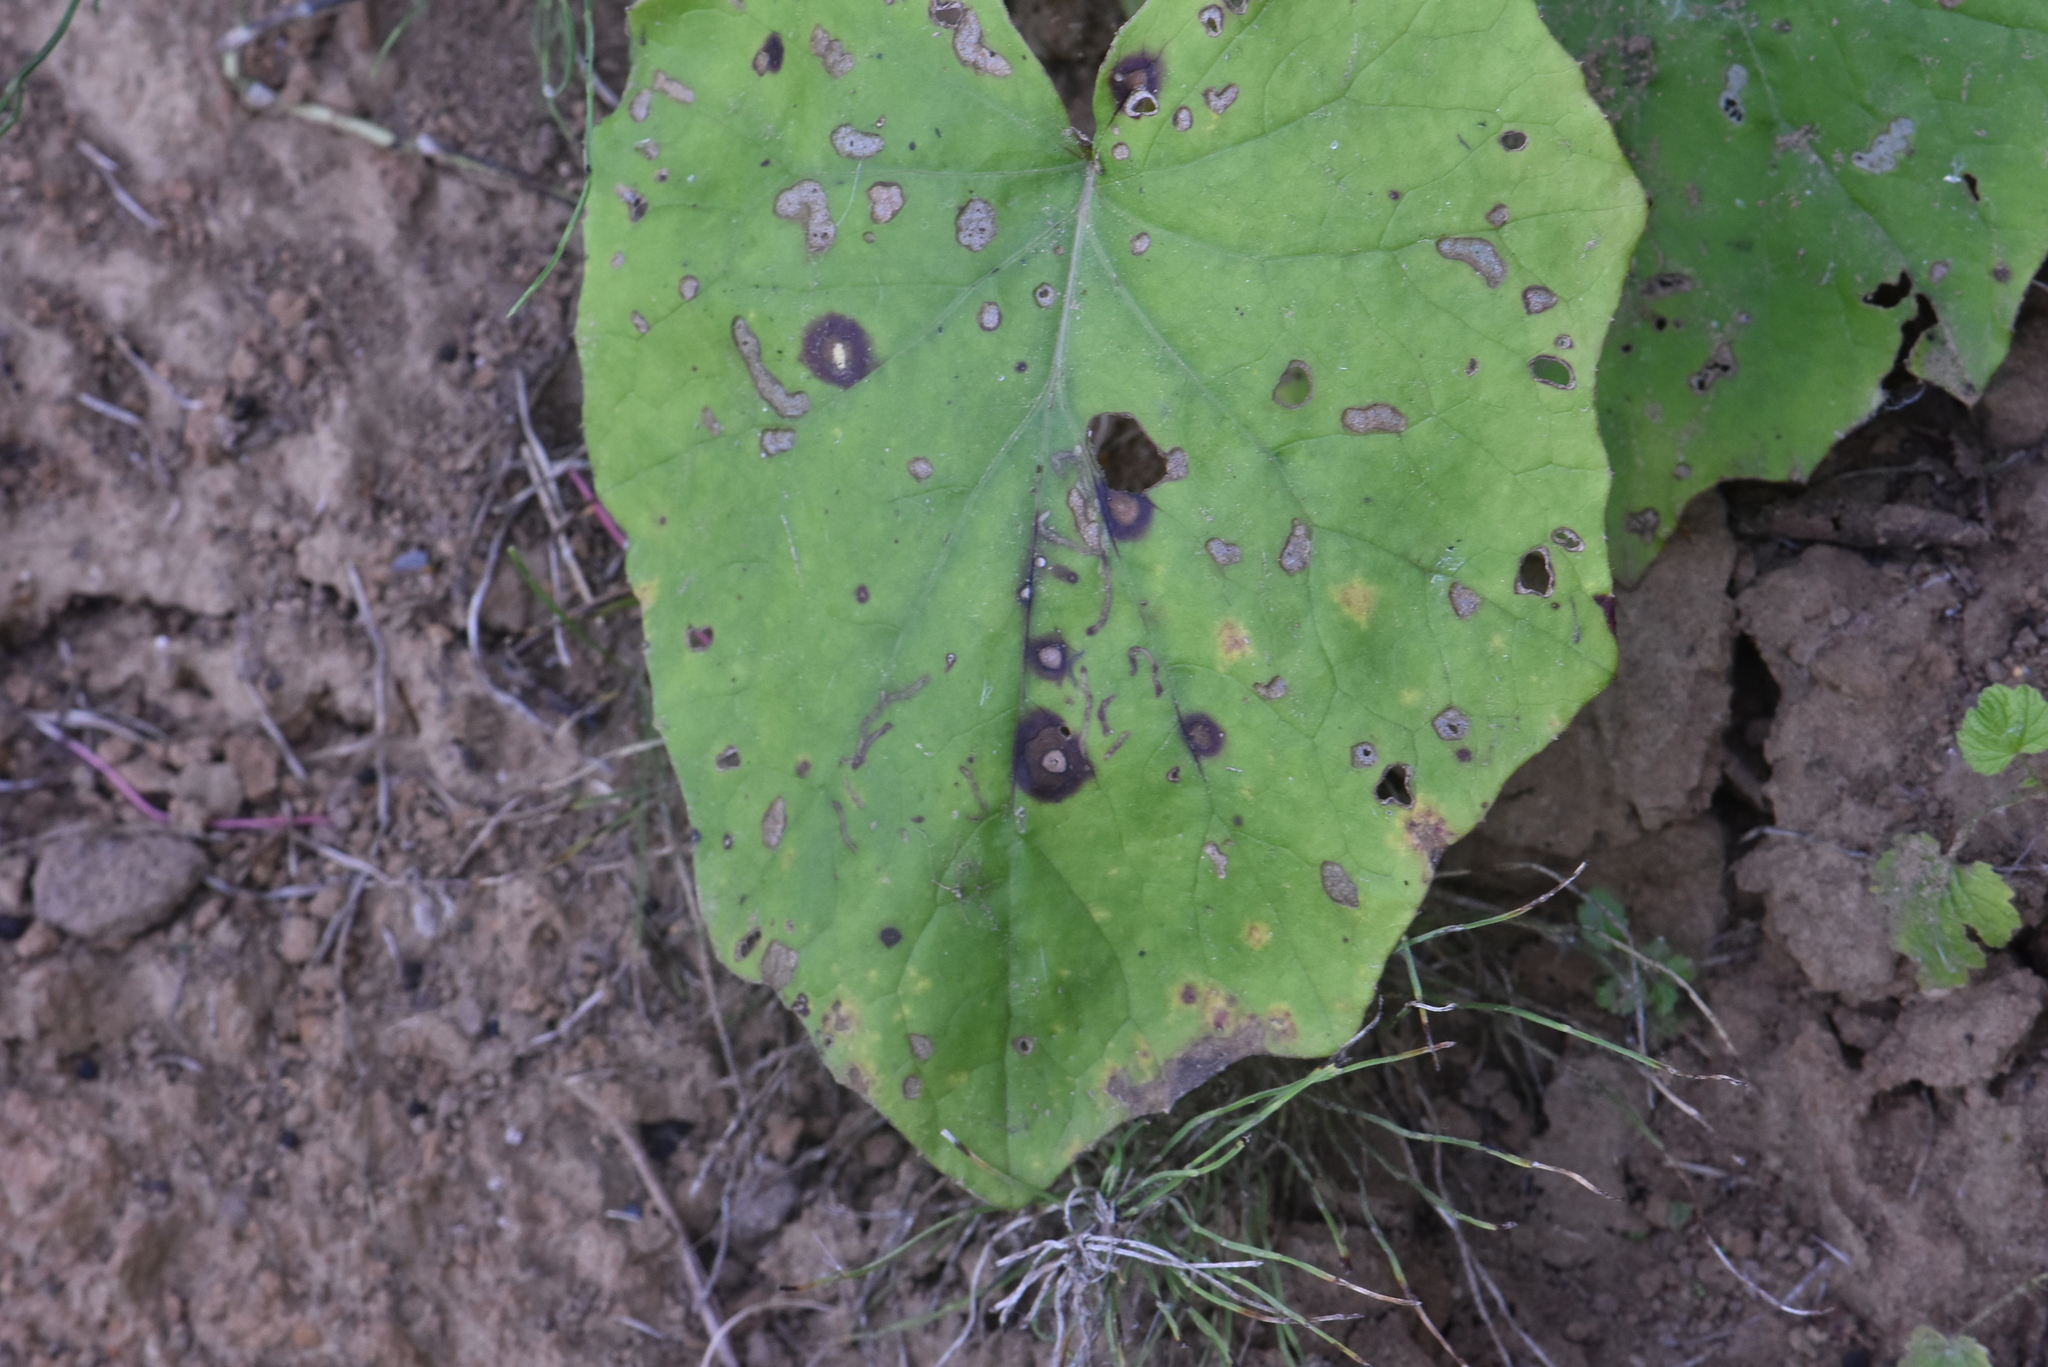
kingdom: Plantae
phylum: Tracheophyta
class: Magnoliopsida
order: Asterales
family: Asteraceae
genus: Tussilago
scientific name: Tussilago farfara
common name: Coltsfoot
